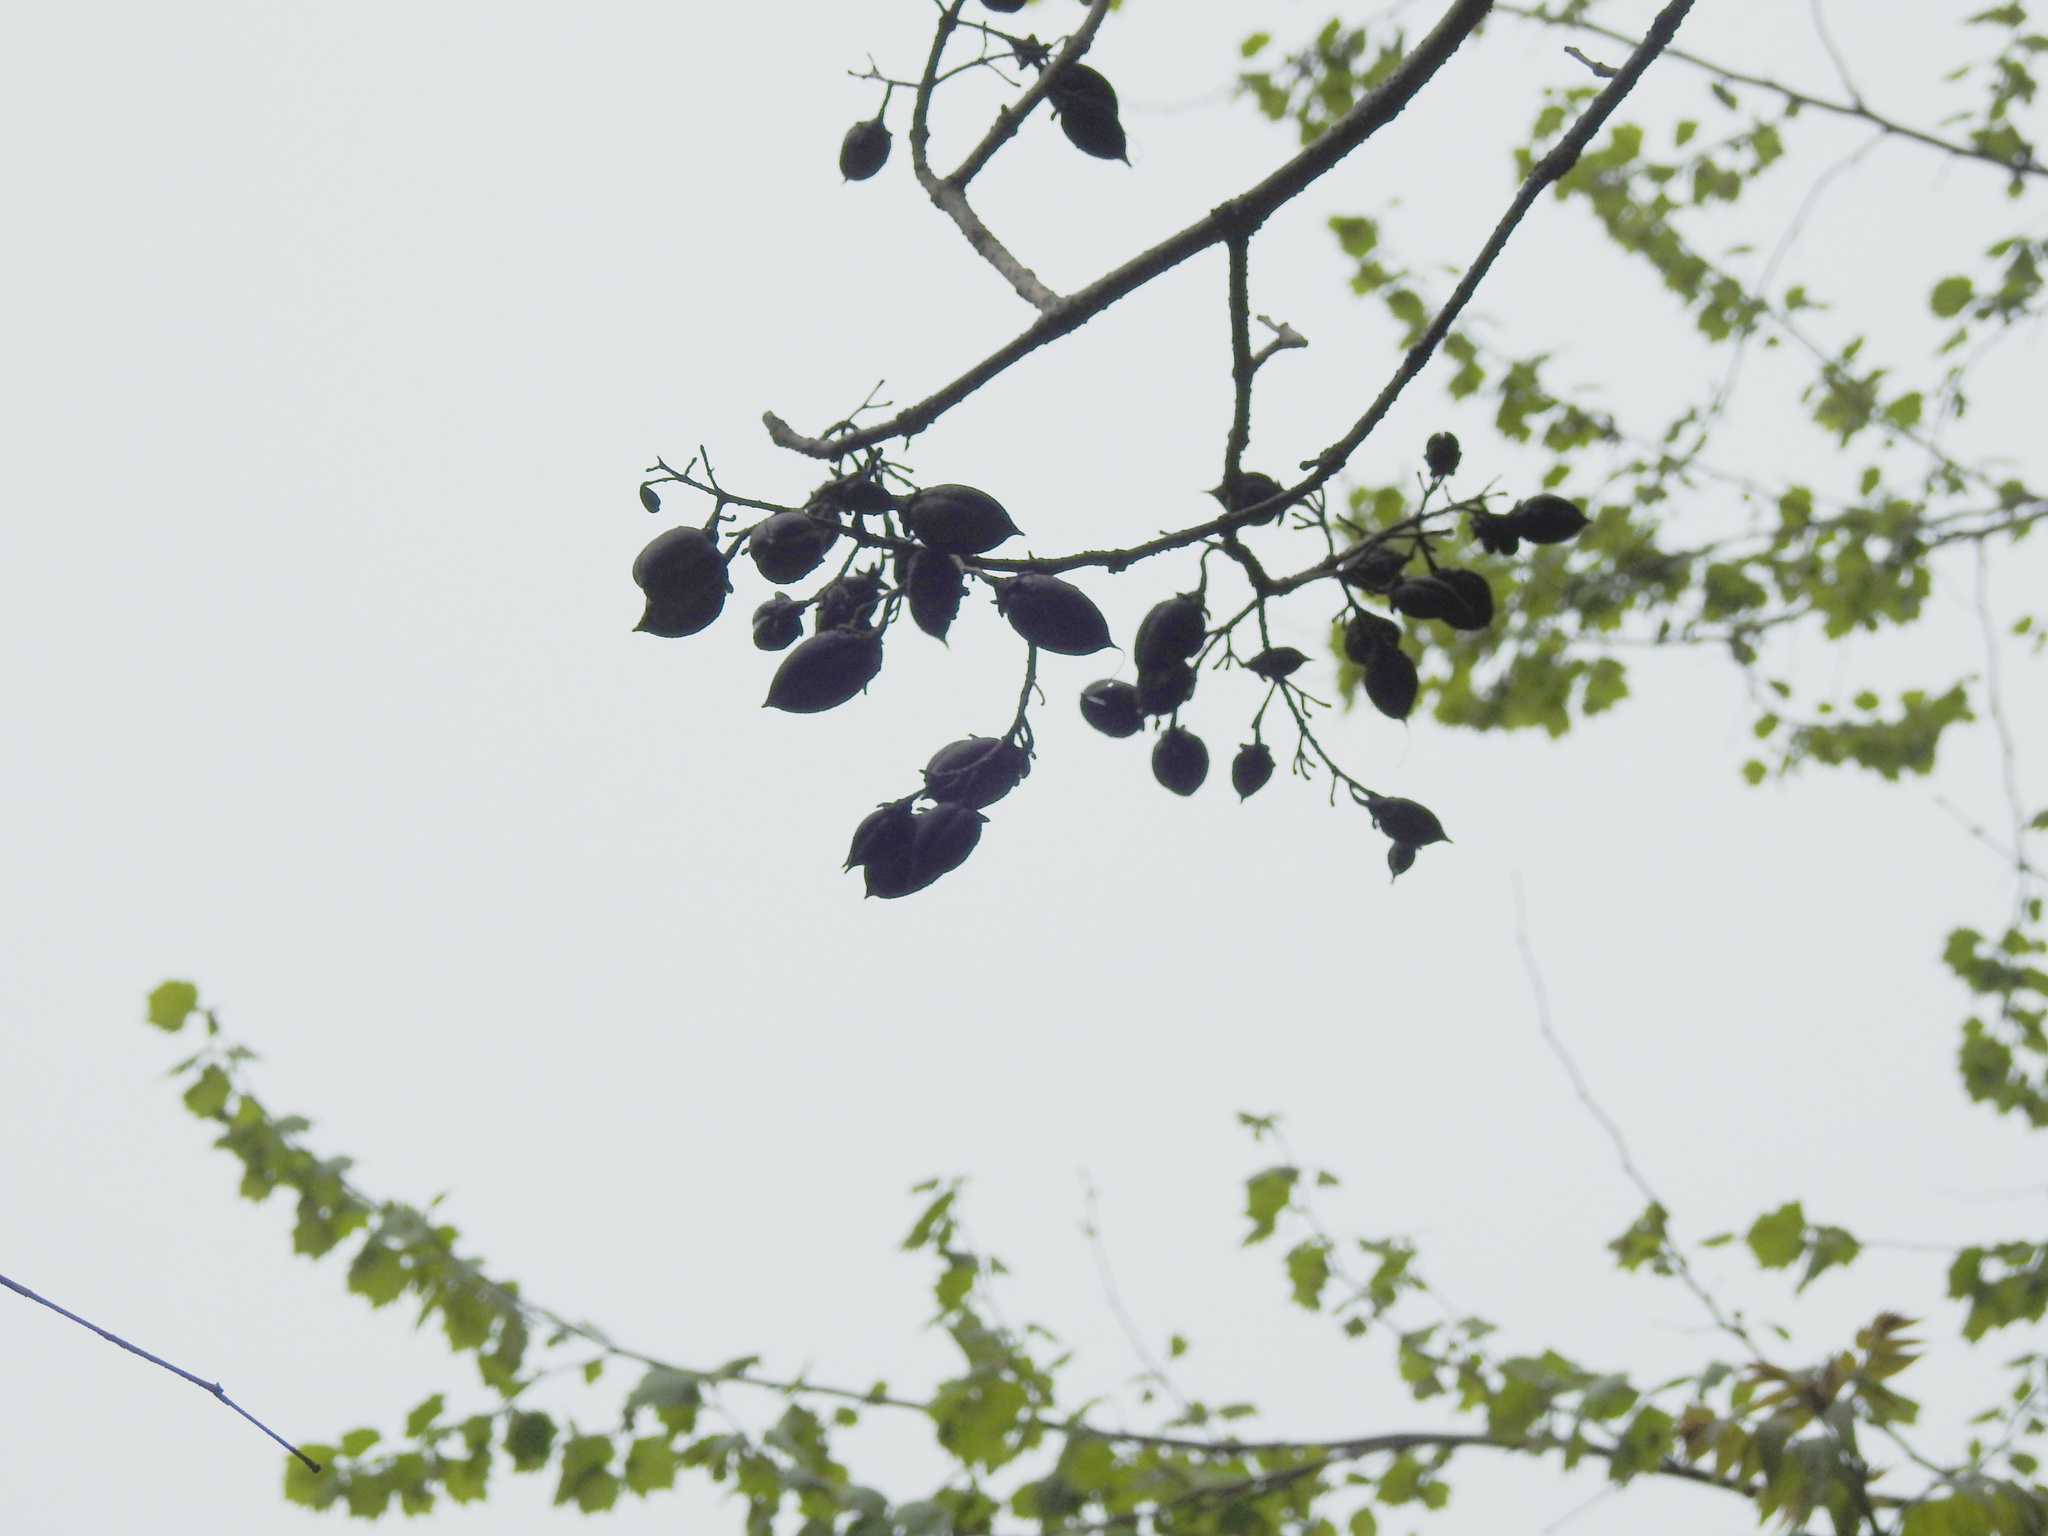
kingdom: Plantae
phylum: Tracheophyta
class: Magnoliopsida
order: Lamiales
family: Paulowniaceae
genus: Paulownia
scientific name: Paulownia tomentosa
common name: Foxglove-tree
